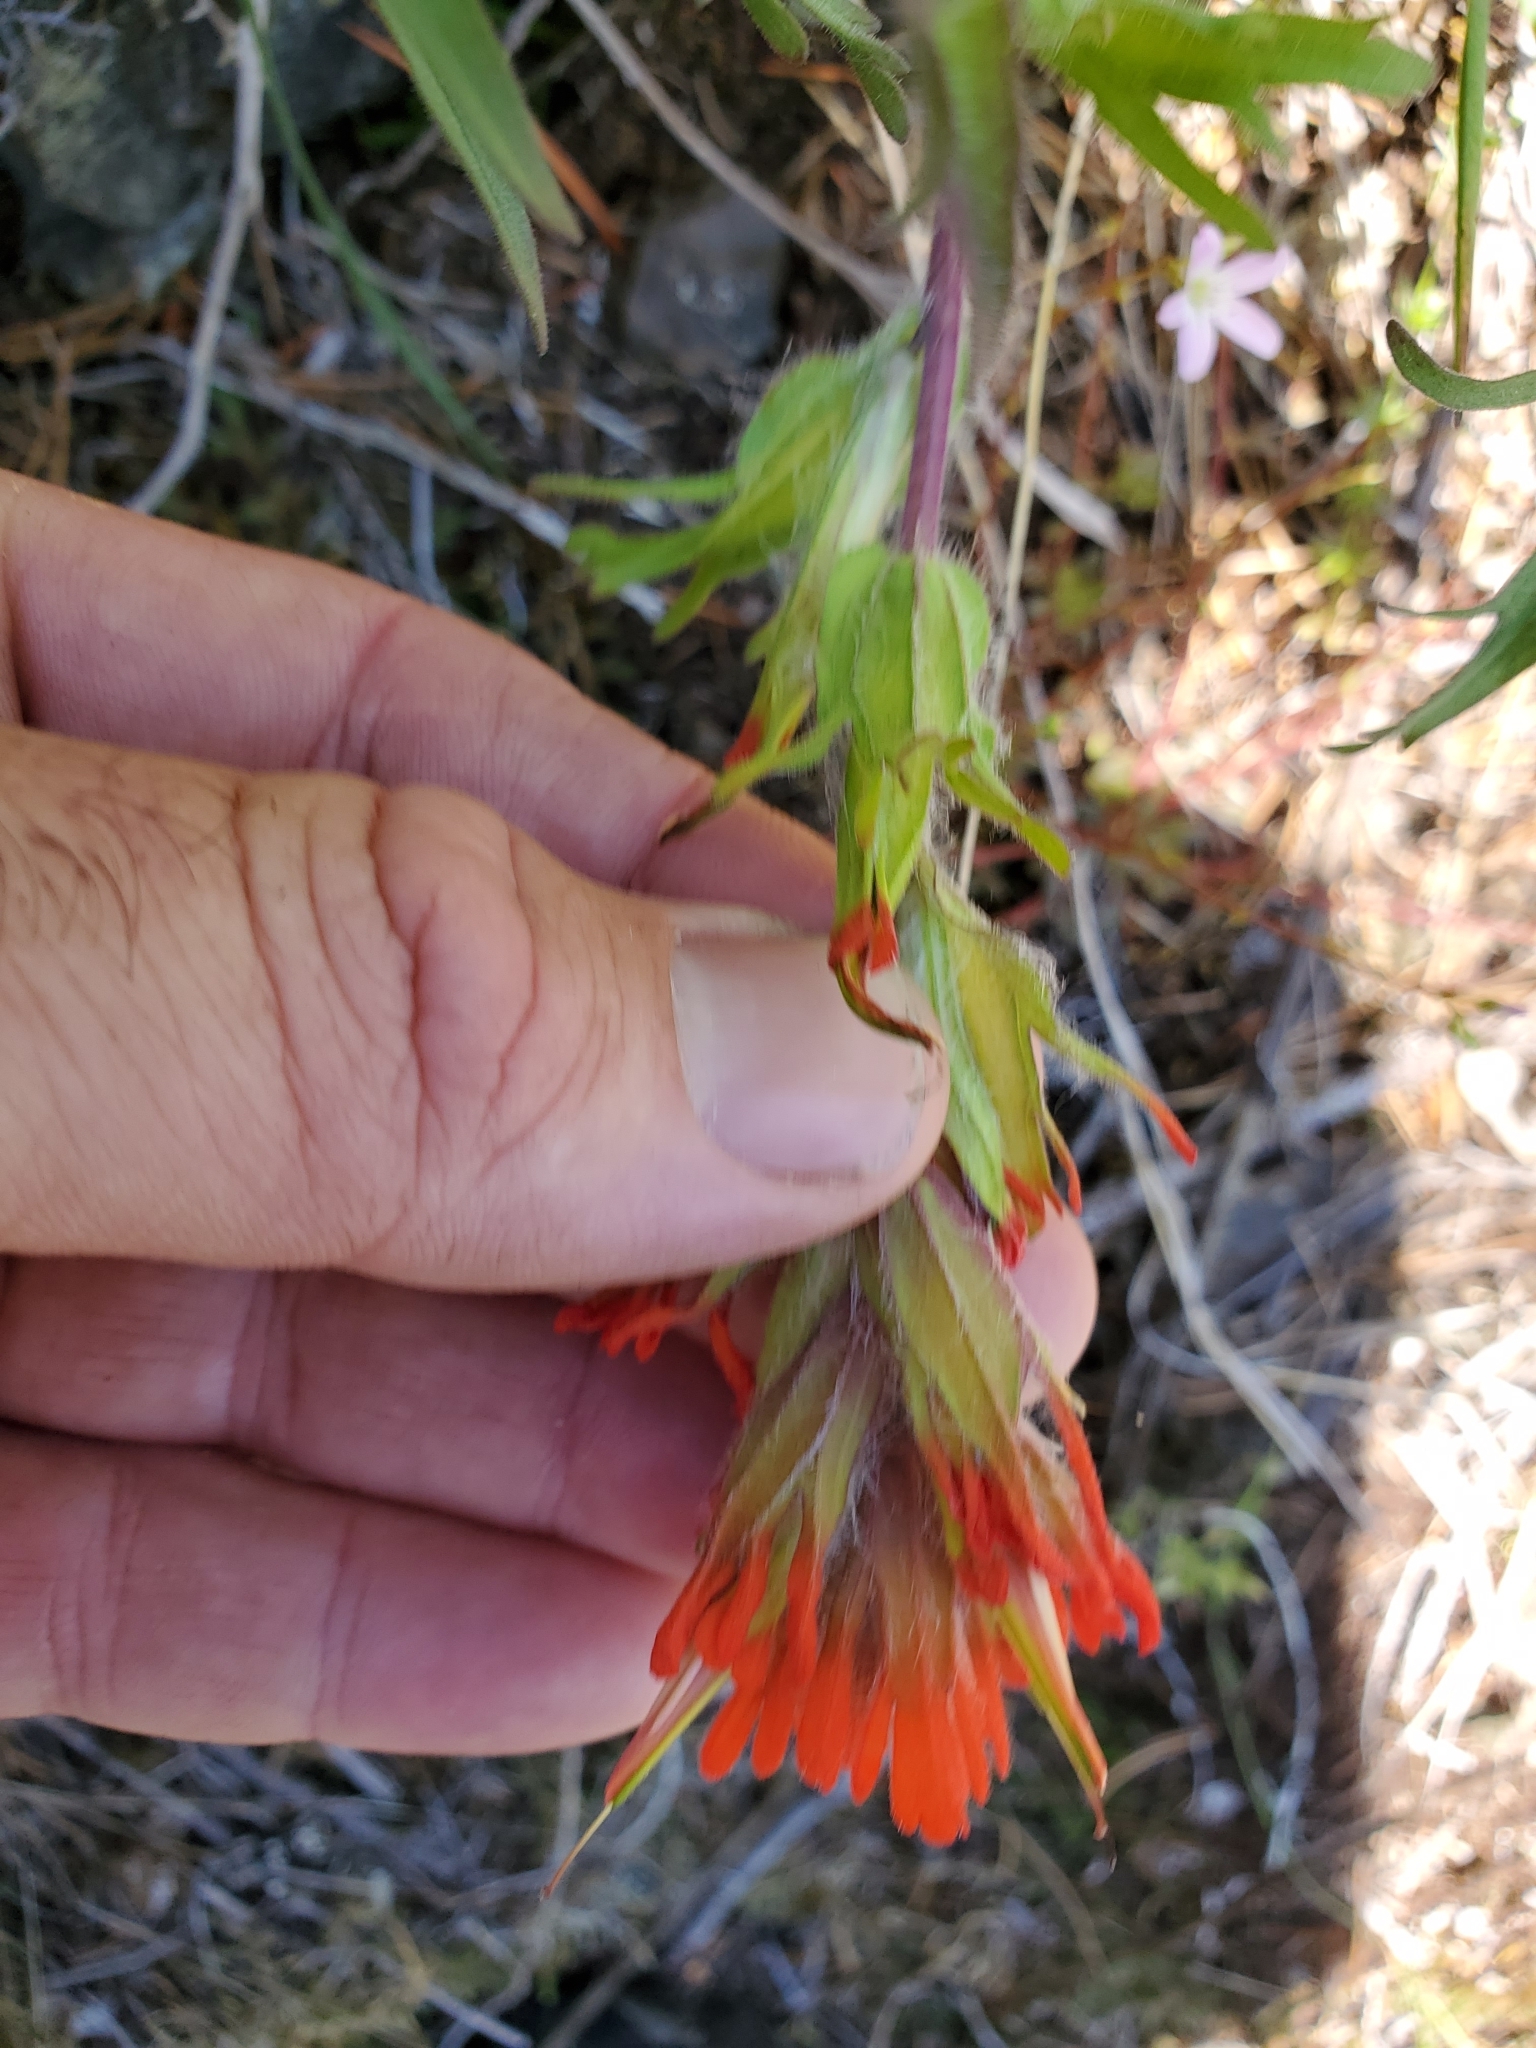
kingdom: Plantae
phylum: Tracheophyta
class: Magnoliopsida
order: Lamiales
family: Orobanchaceae
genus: Castilleja
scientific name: Castilleja hispida
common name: Bristly paintbrush
